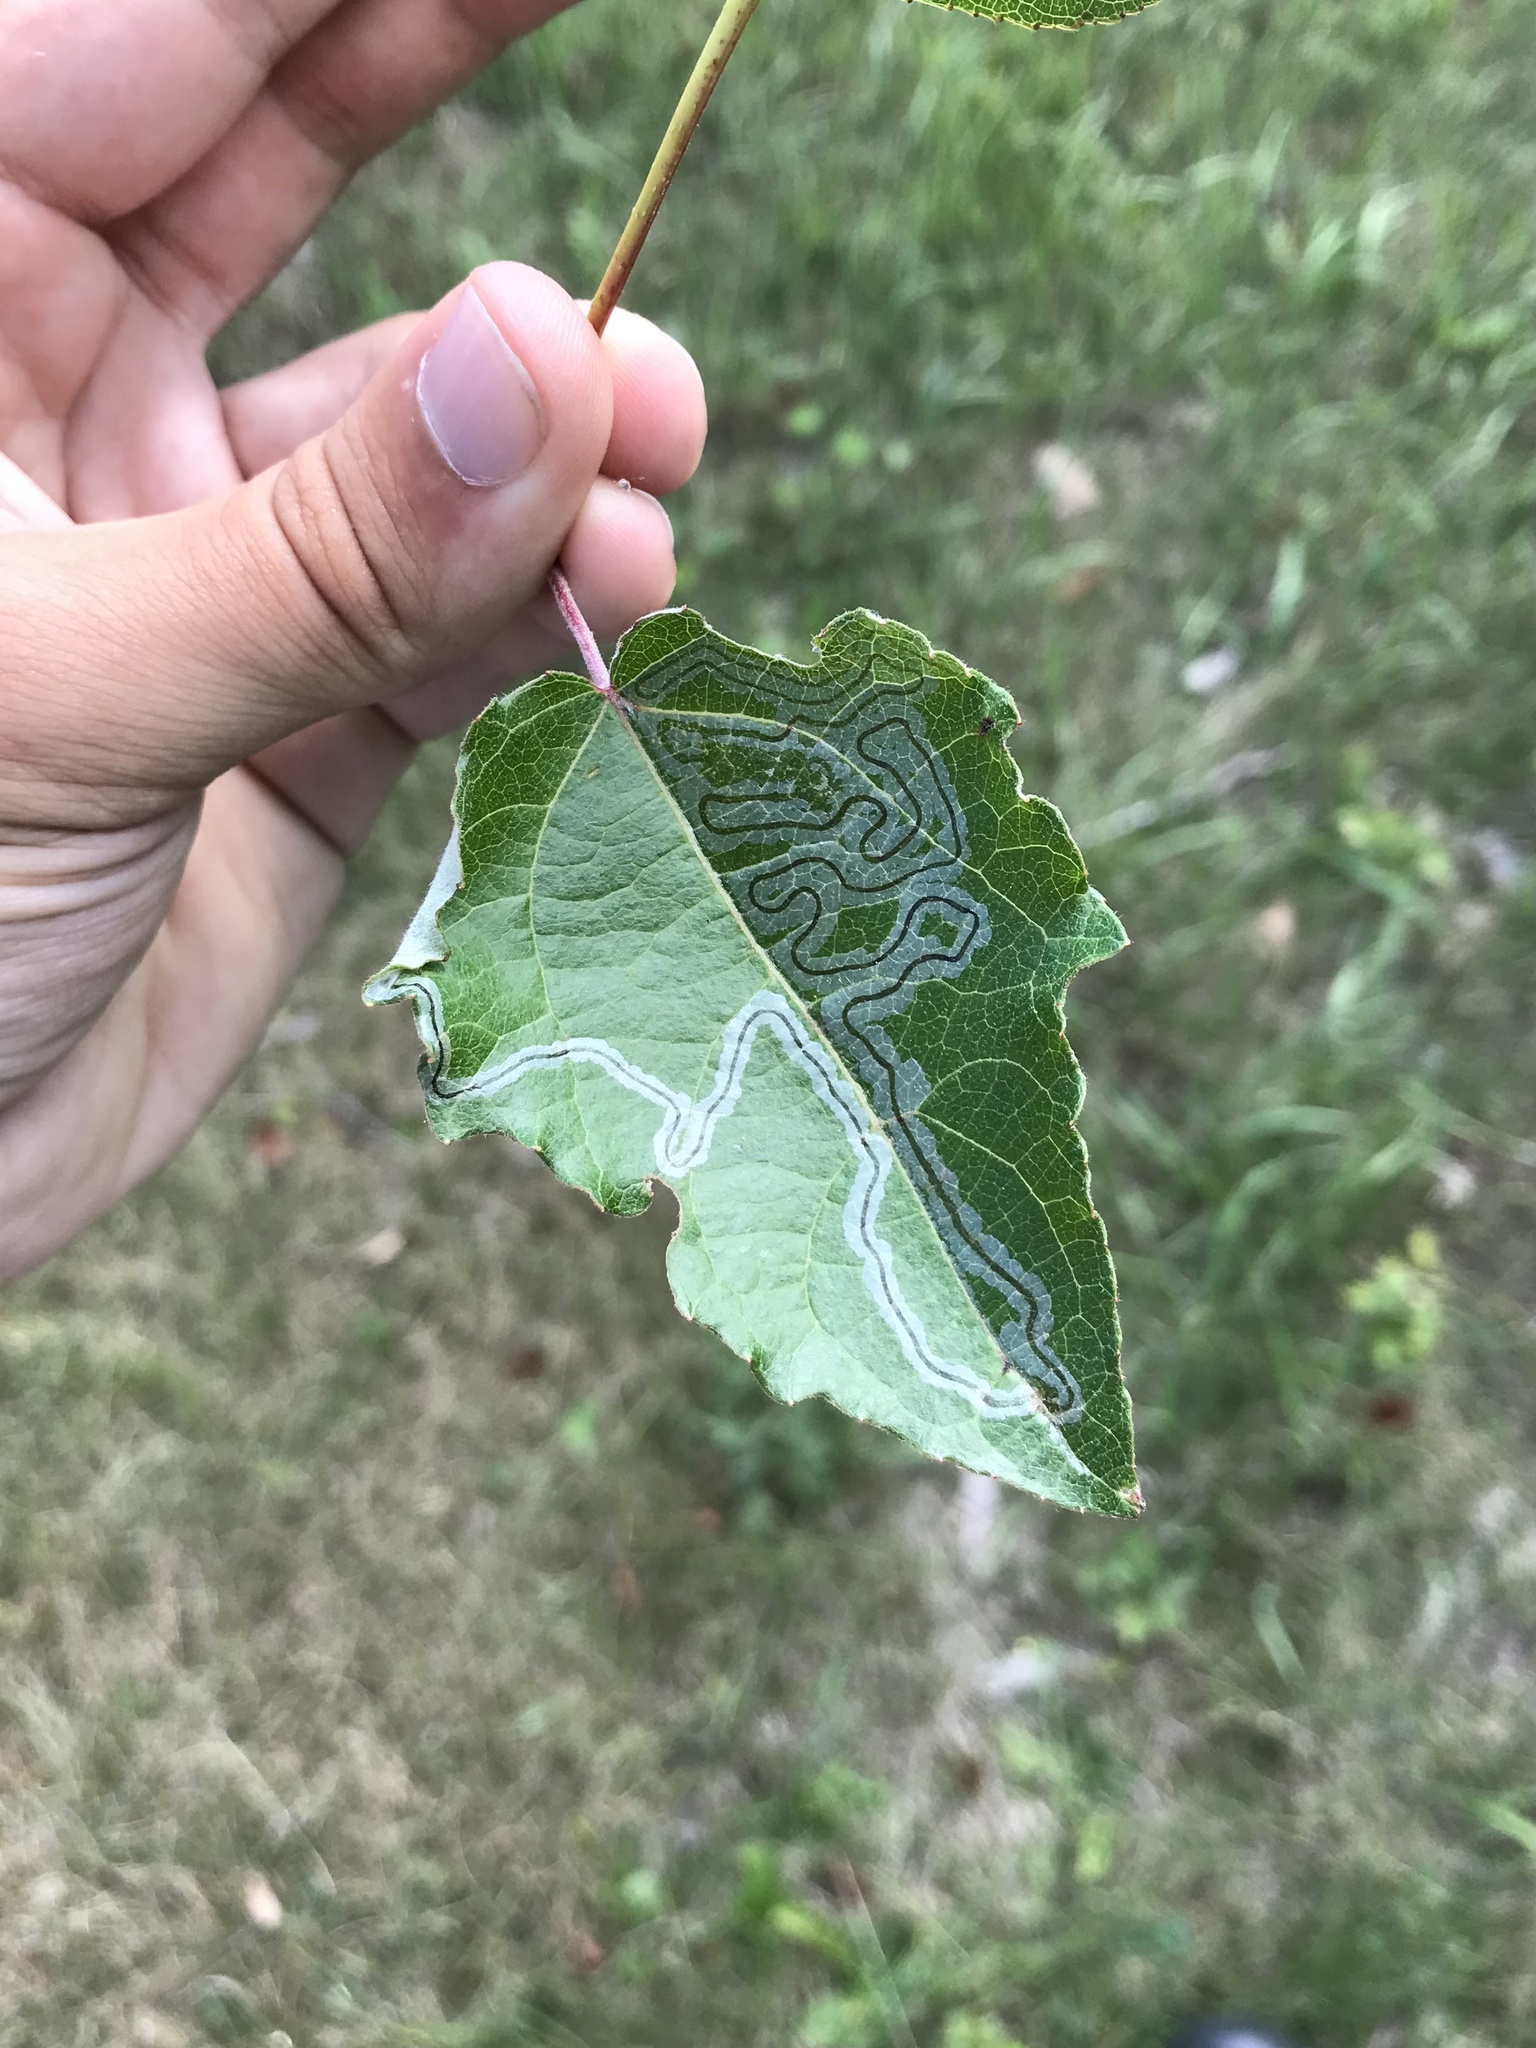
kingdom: Animalia
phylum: Arthropoda
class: Insecta
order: Lepidoptera
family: Gracillariidae
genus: Phyllocnistis
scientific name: Phyllocnistis populiella
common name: Aspen serpentine leafminer moth
